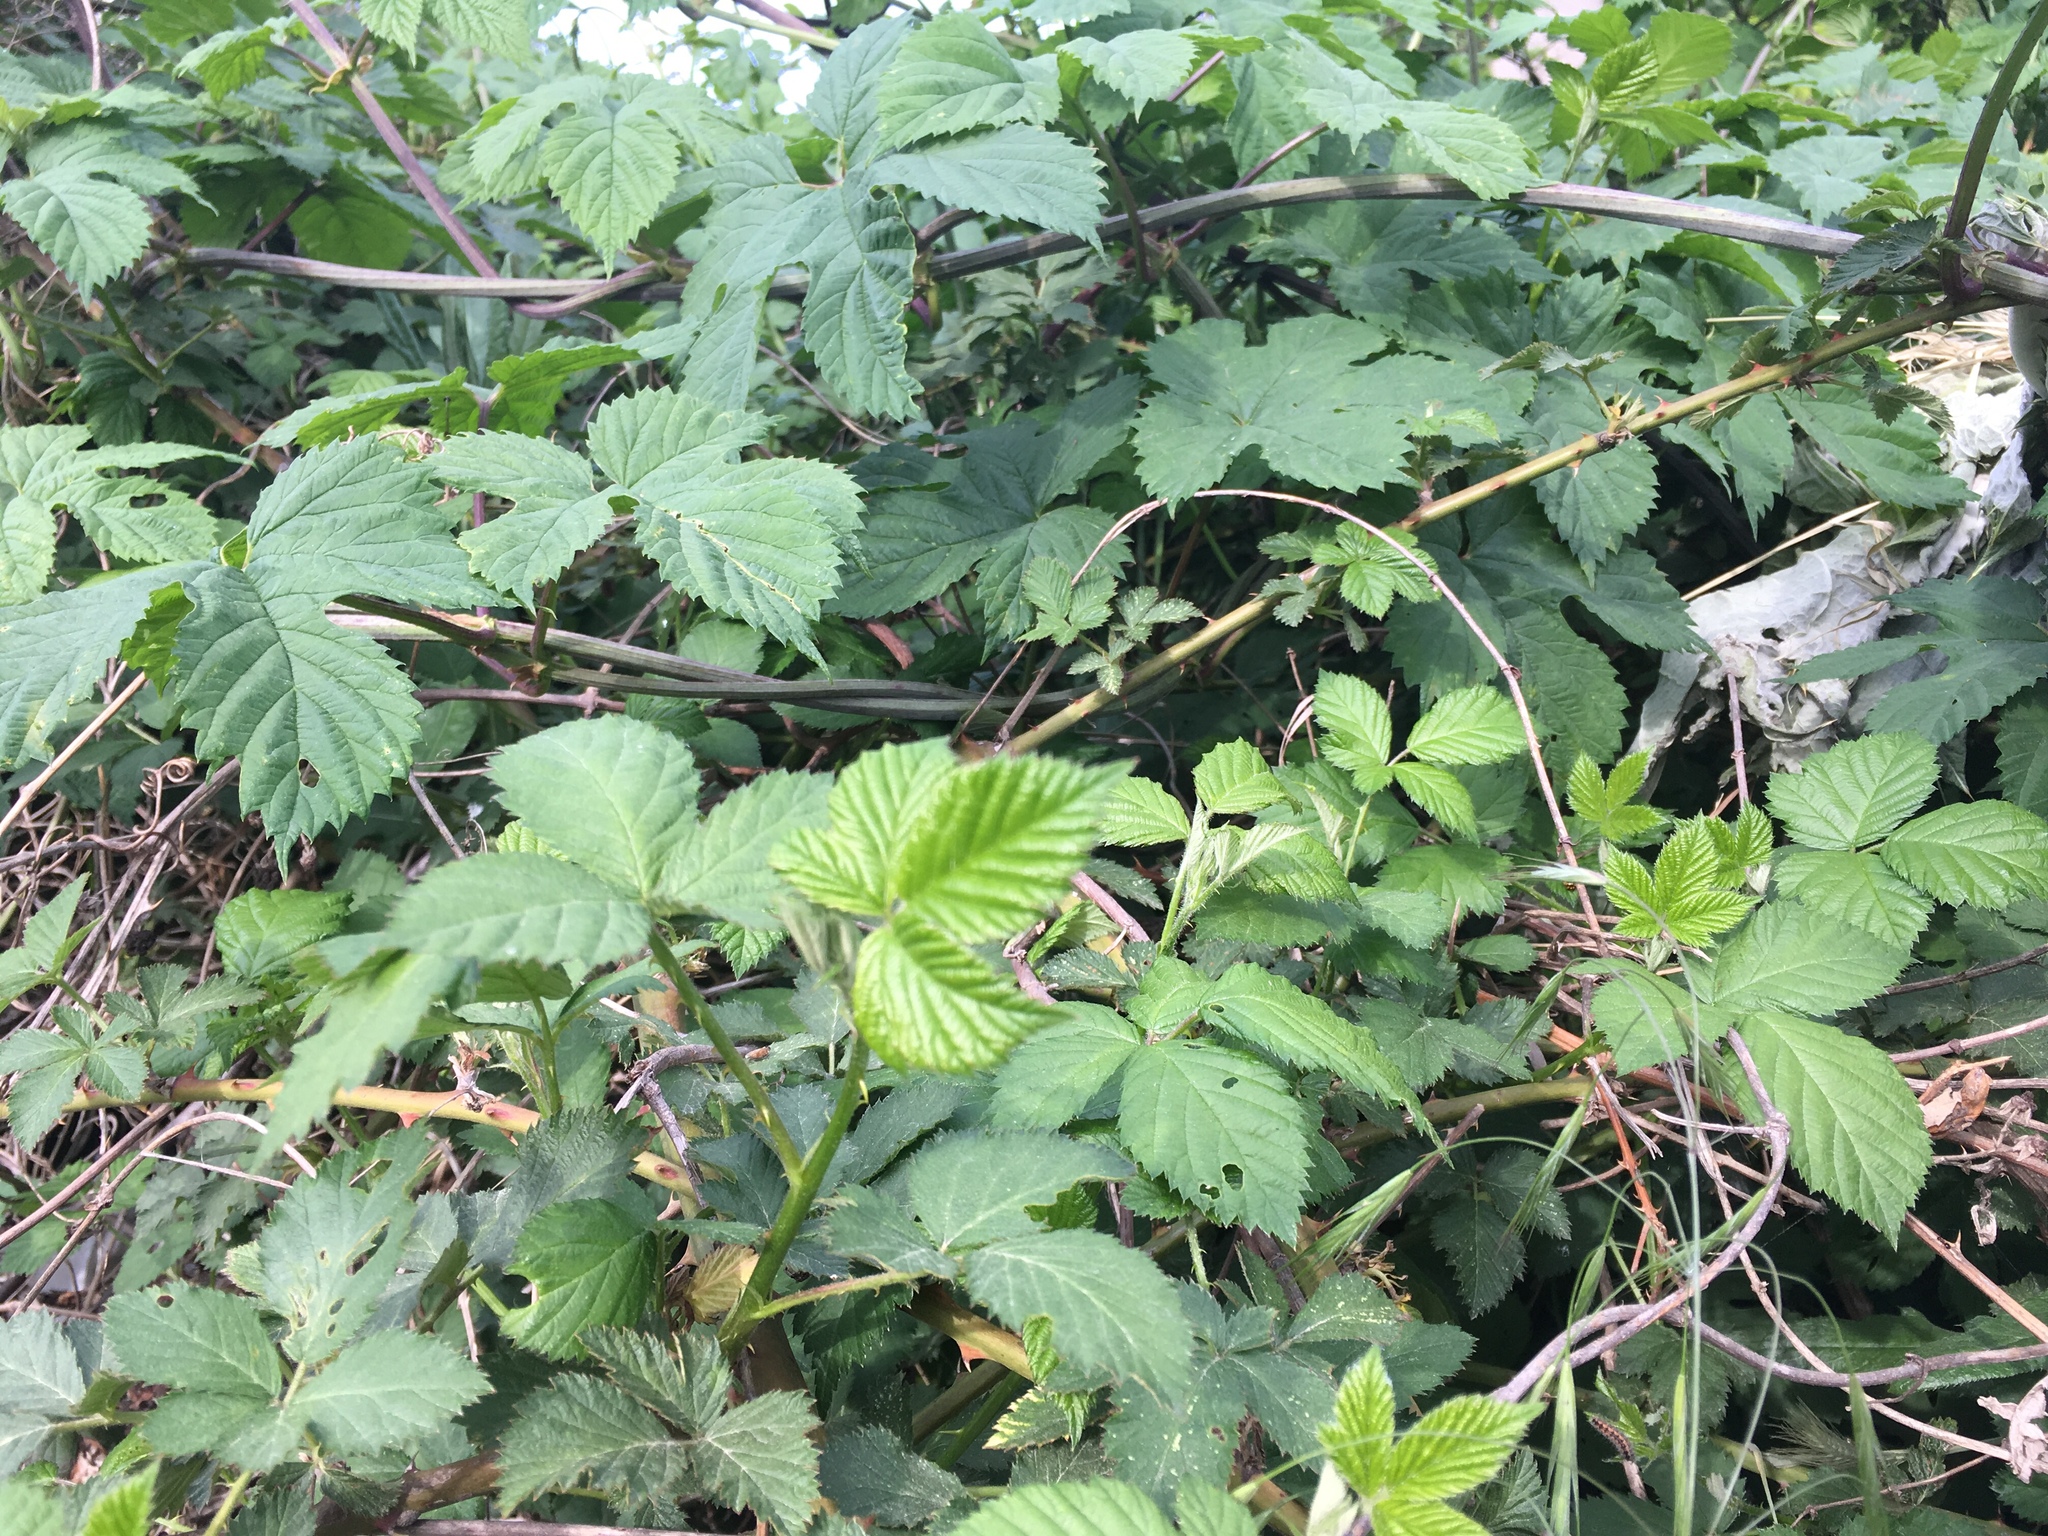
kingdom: Plantae
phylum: Tracheophyta
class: Magnoliopsida
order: Rosales
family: Cannabaceae
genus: Humulus
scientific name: Humulus lupulus
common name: Hop
